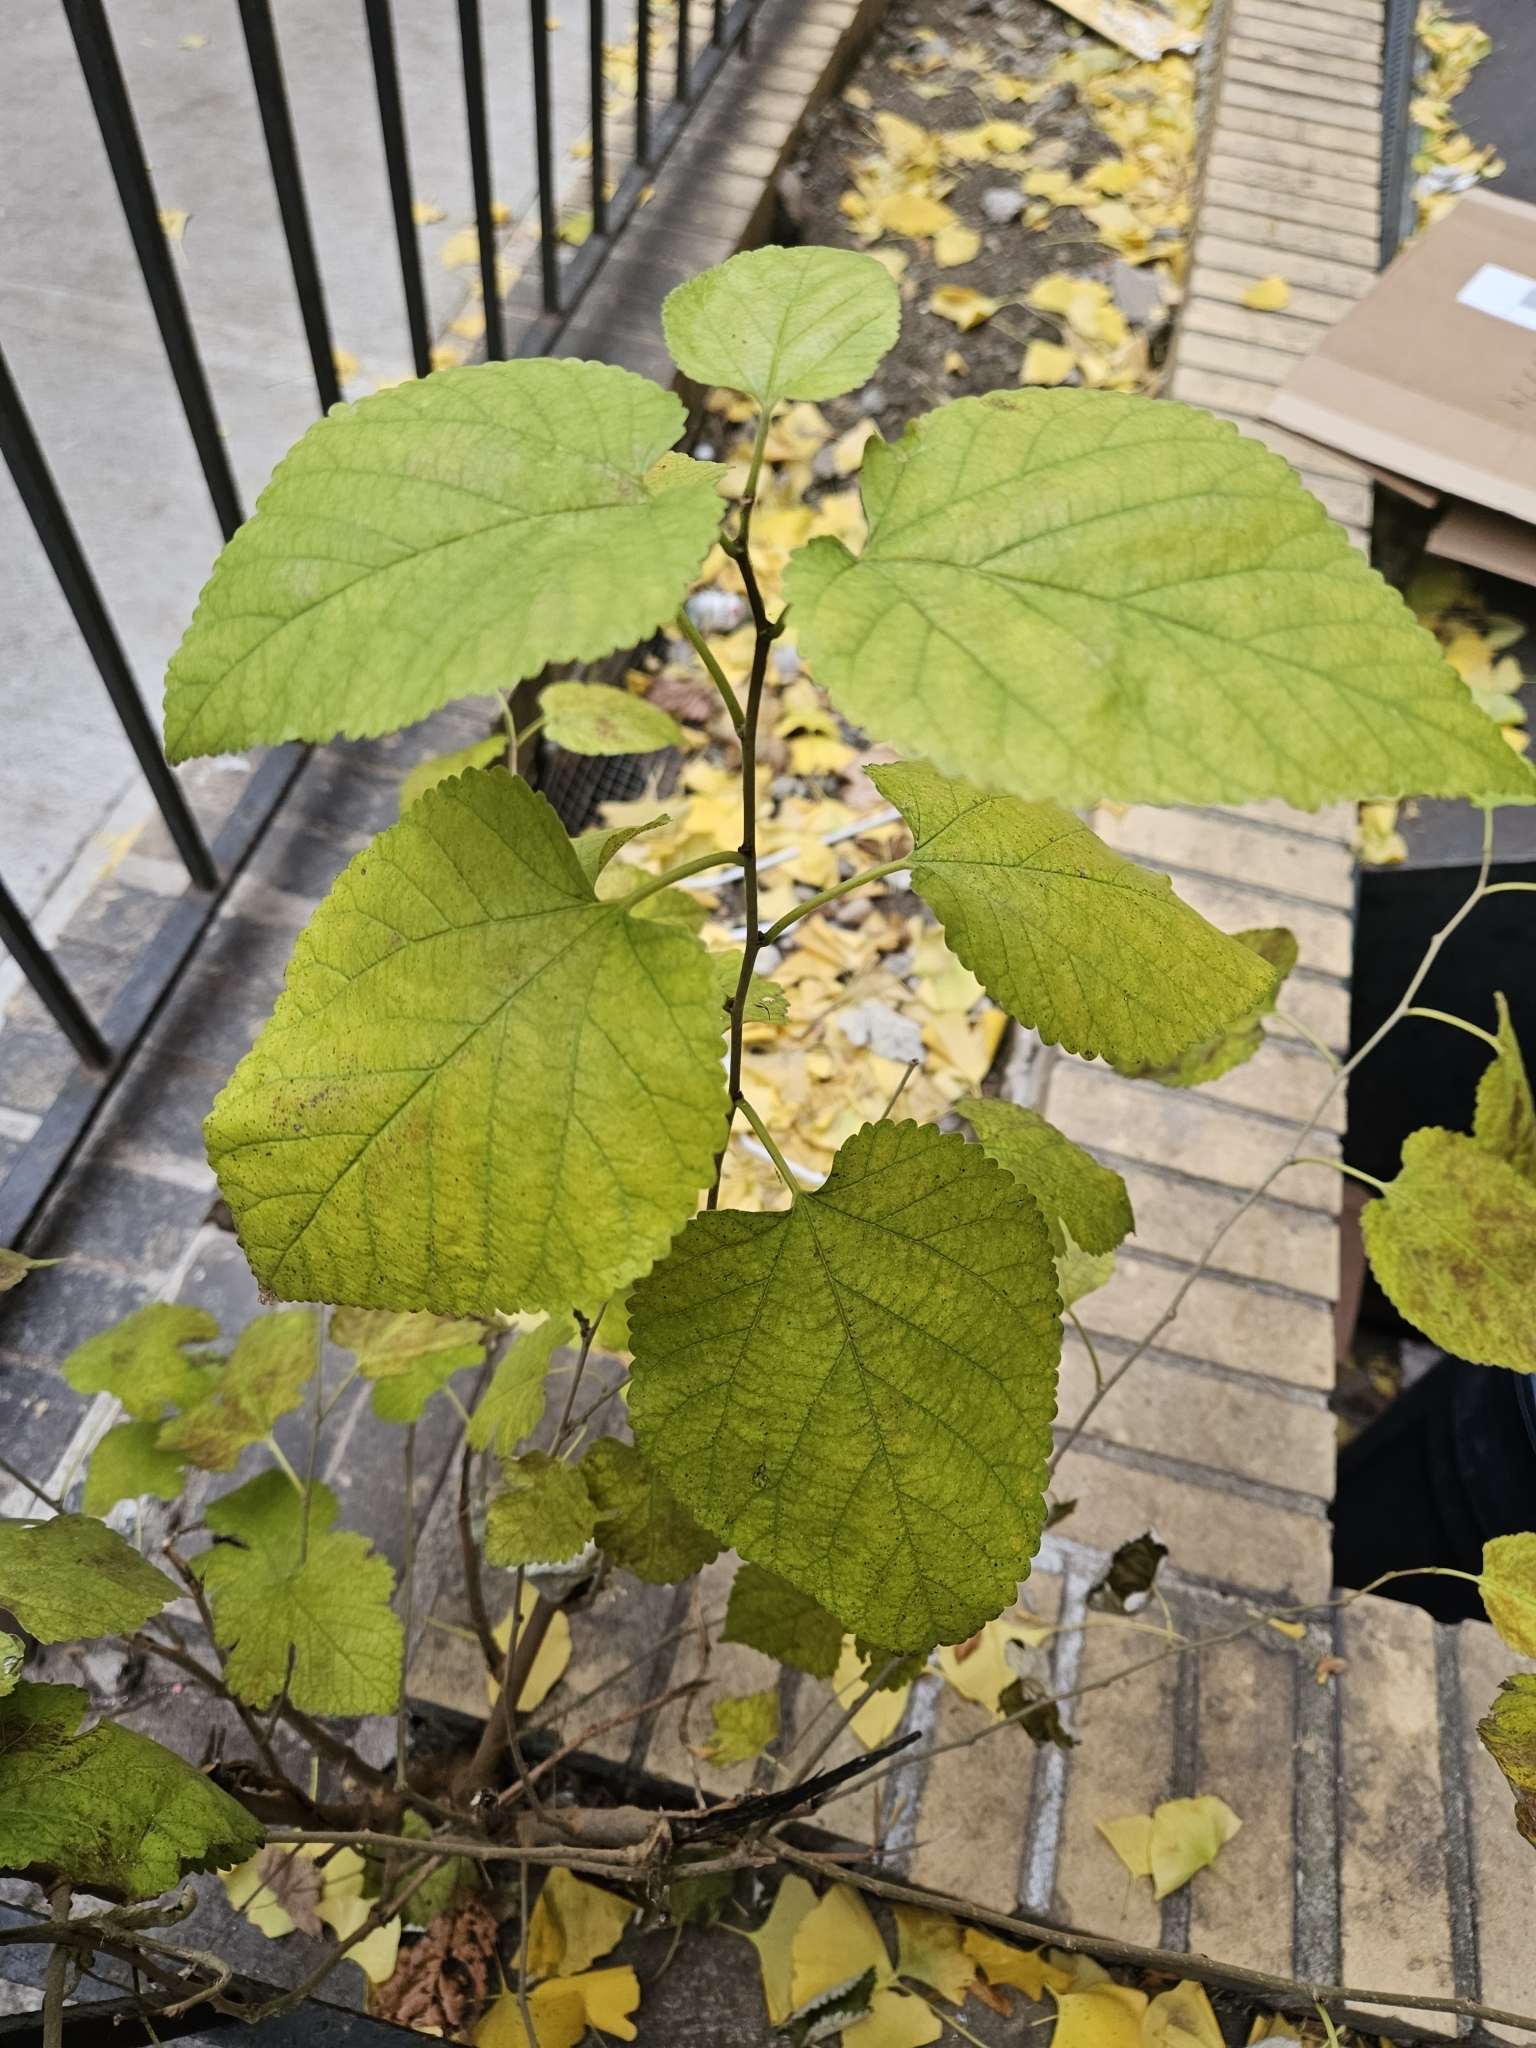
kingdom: Plantae
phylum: Tracheophyta
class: Magnoliopsida
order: Rosales
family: Moraceae
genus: Morus
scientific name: Morus alba
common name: White mulberry
